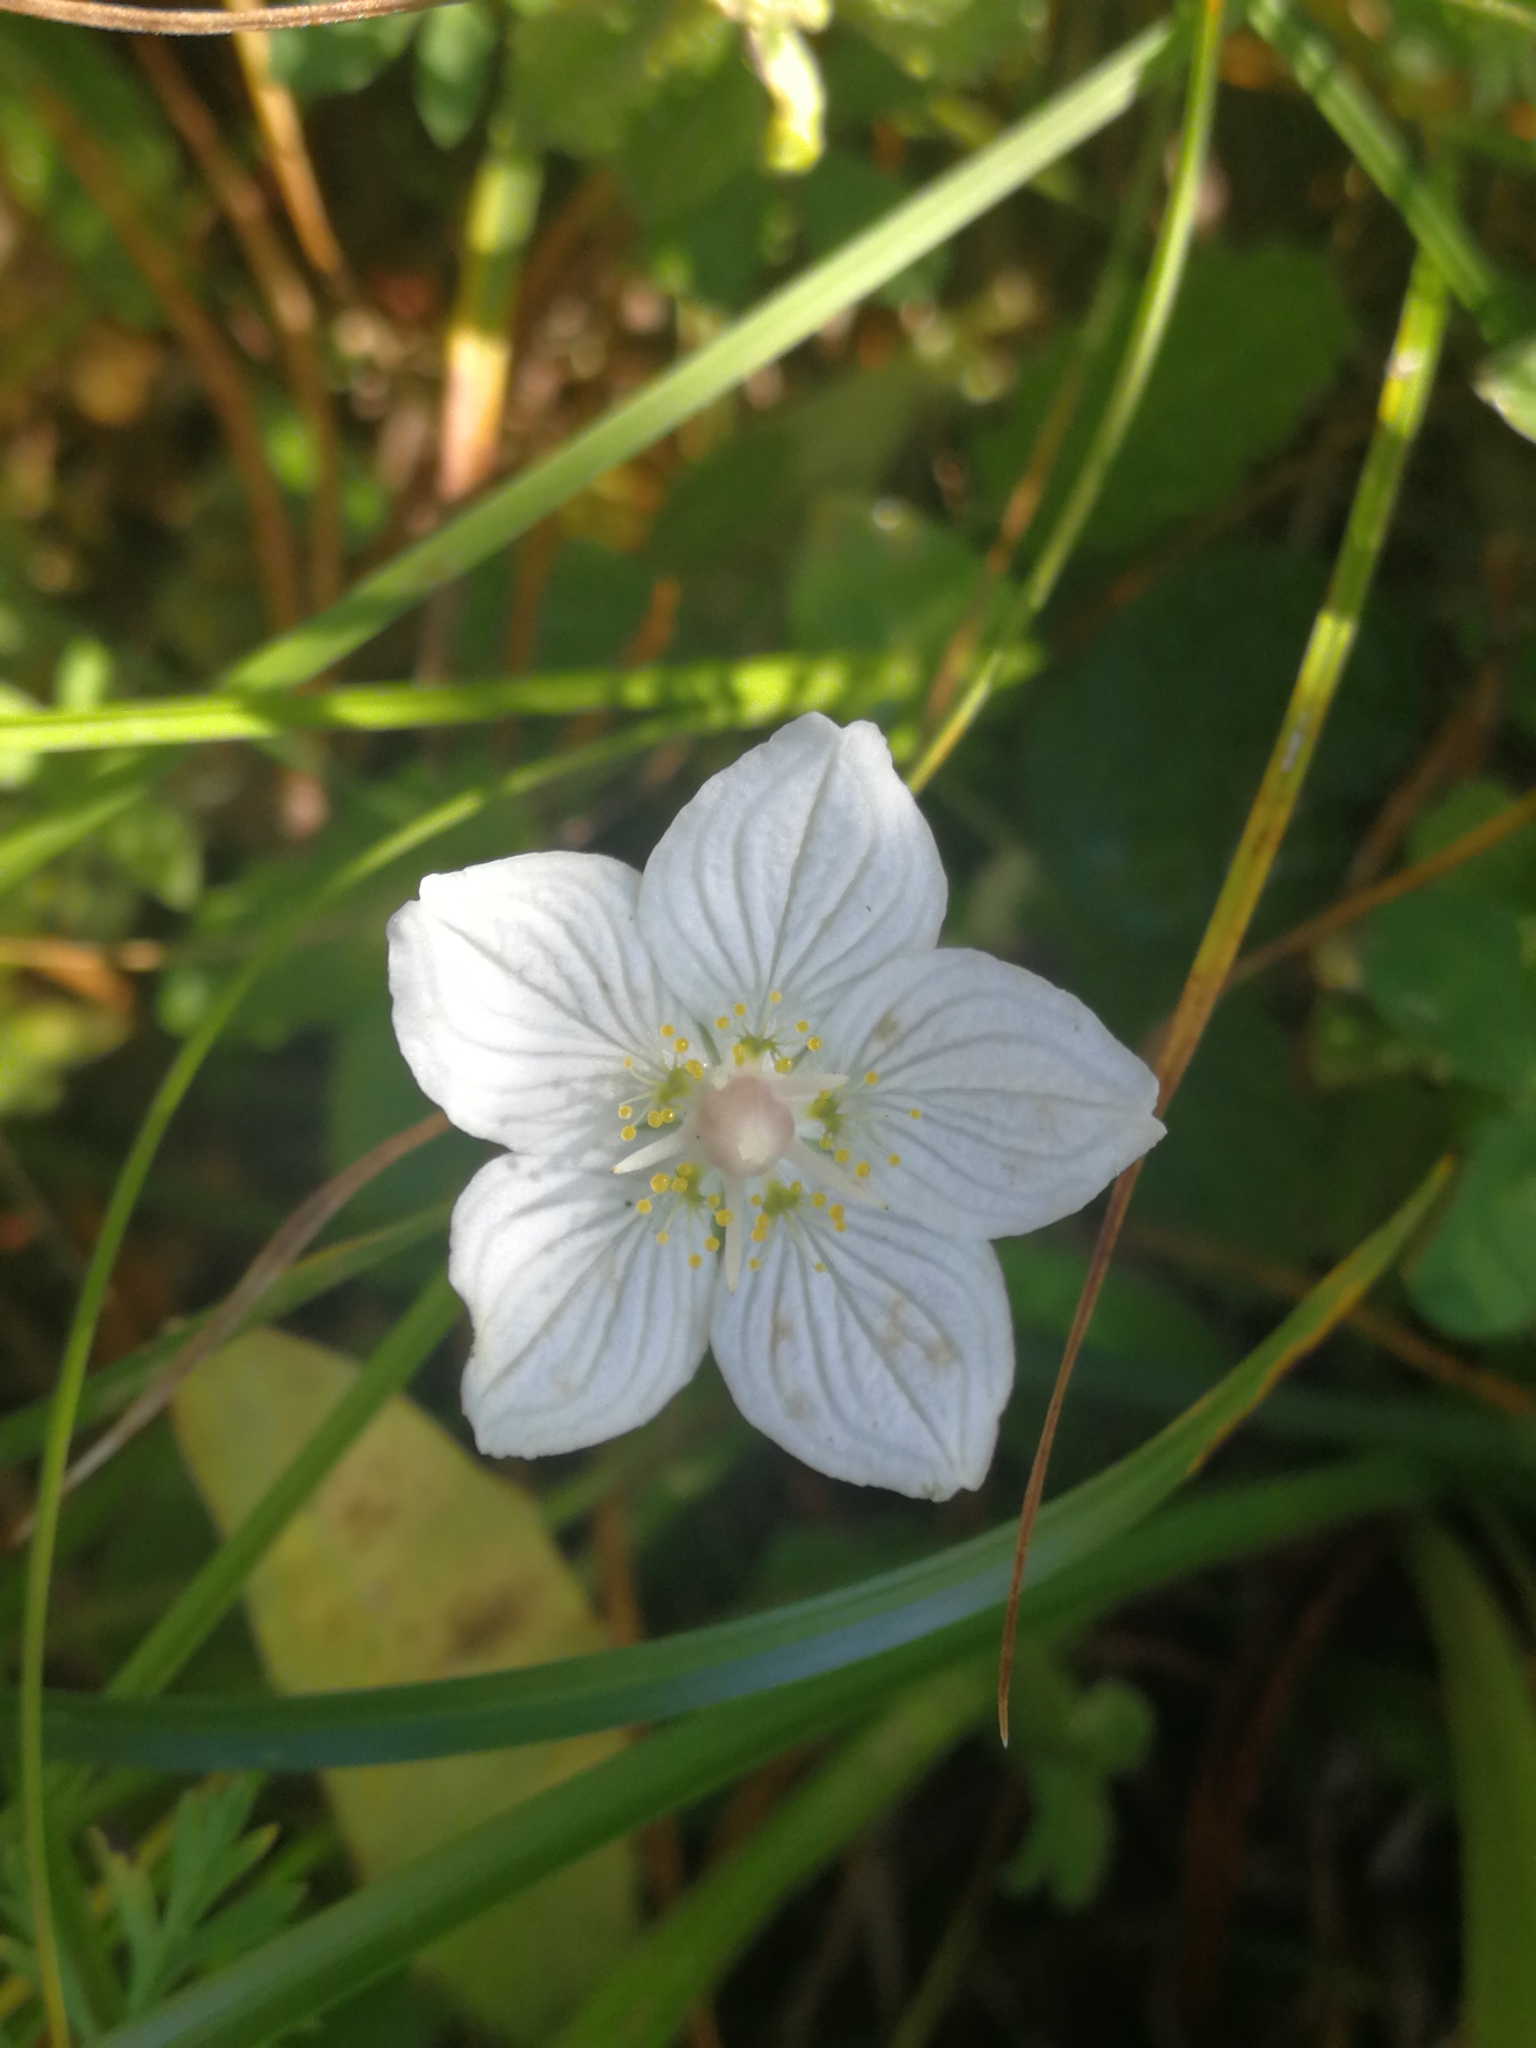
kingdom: Plantae
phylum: Tracheophyta
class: Magnoliopsida
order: Celastrales
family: Parnassiaceae
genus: Parnassia
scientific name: Parnassia palustris
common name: Grass-of-parnassus
